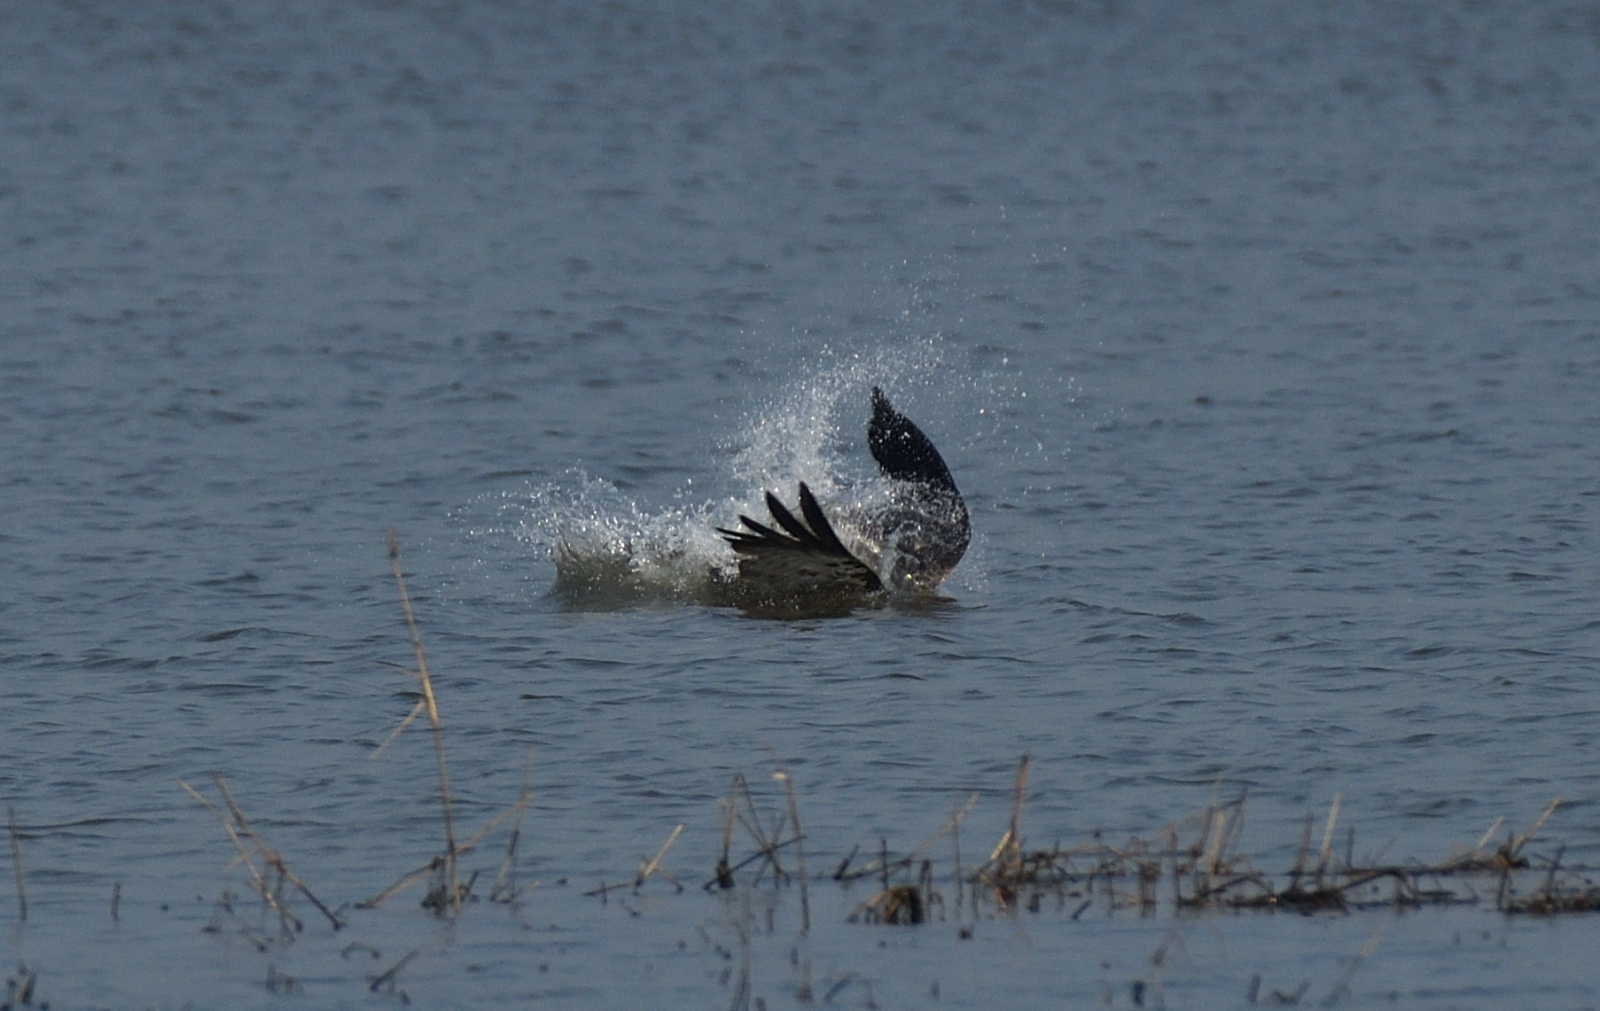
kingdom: Animalia
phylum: Chordata
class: Aves
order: Accipitriformes
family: Pandionidae
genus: Pandion
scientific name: Pandion haliaetus
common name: Osprey
